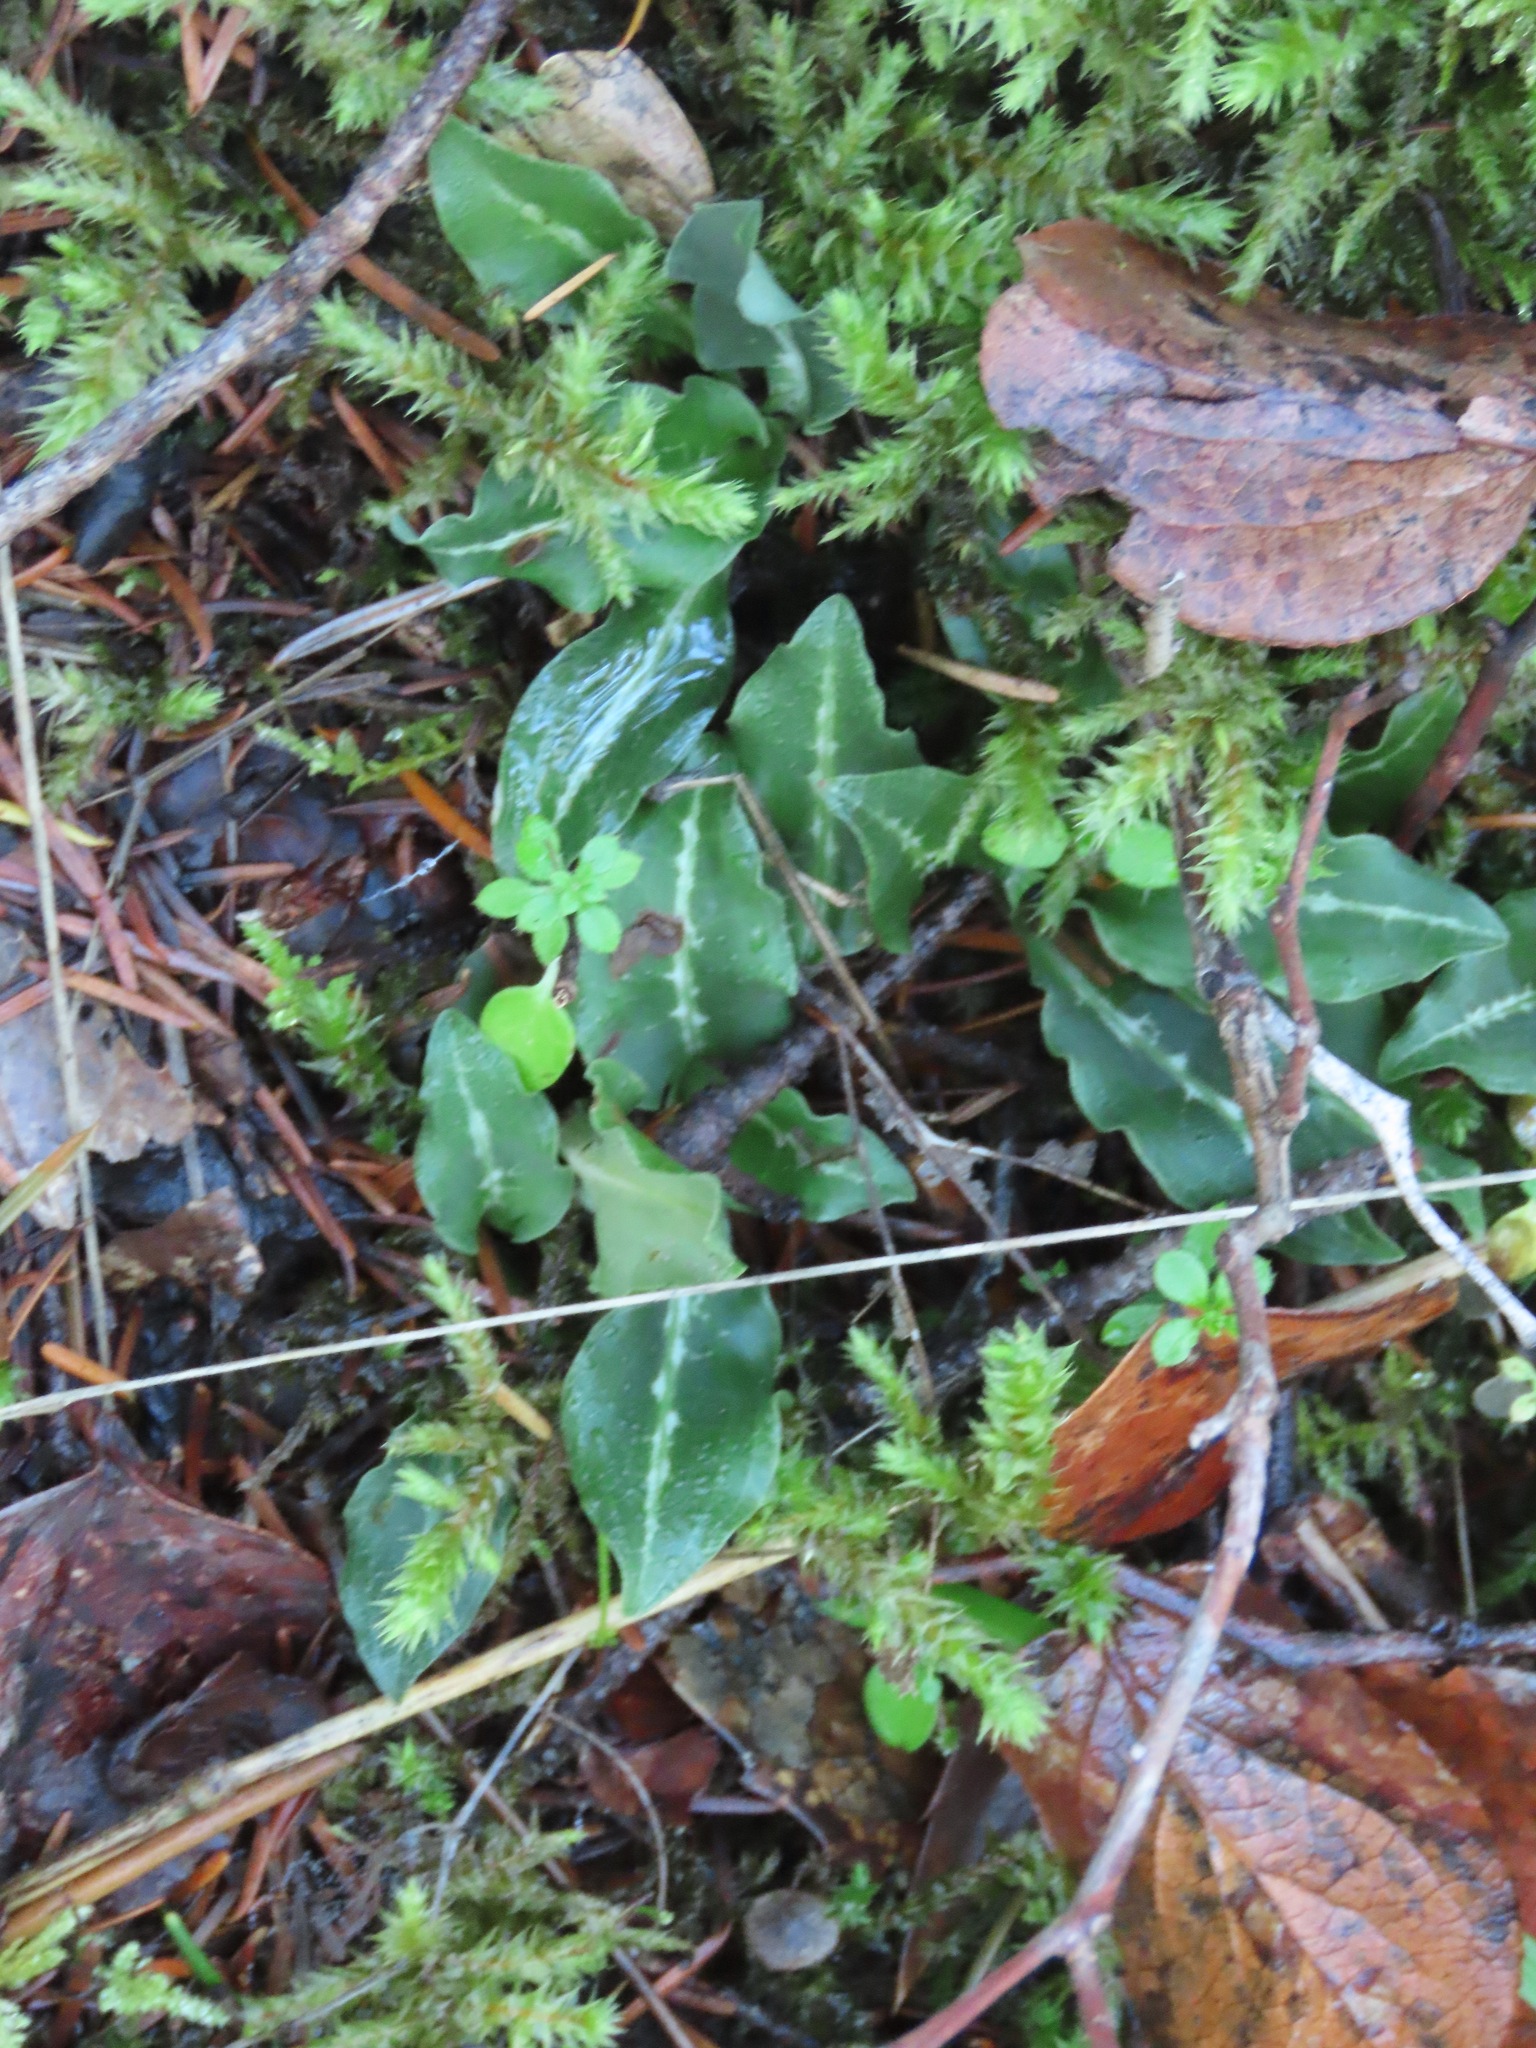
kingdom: Plantae
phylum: Tracheophyta
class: Liliopsida
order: Asparagales
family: Orchidaceae
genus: Goodyera
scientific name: Goodyera oblongifolia
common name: Giant rattlesnake-plantain
